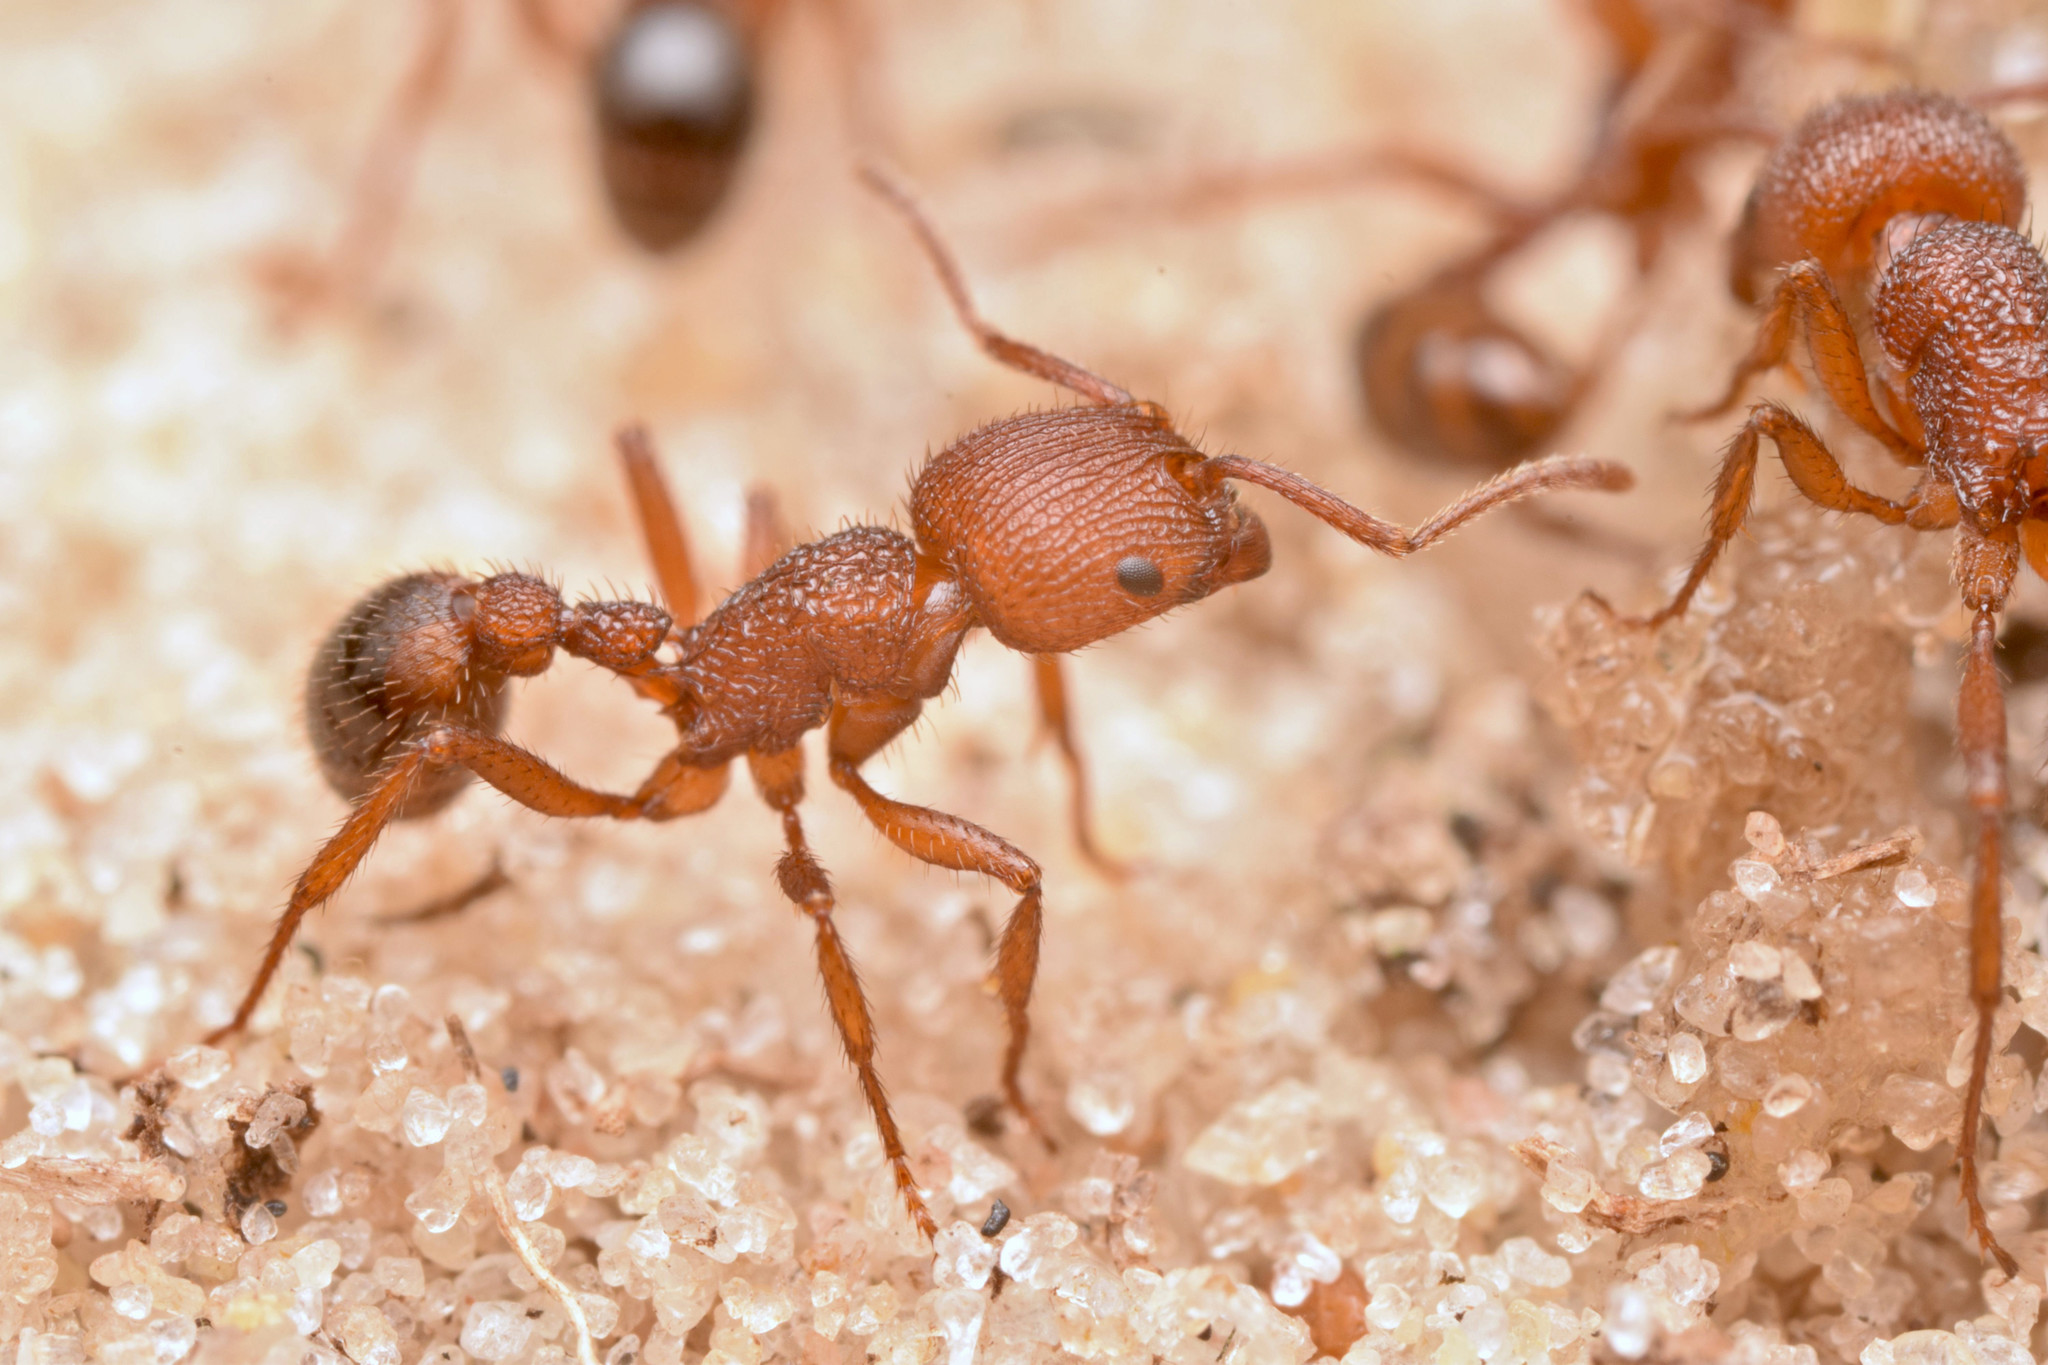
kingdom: Animalia
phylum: Arthropoda
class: Insecta
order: Hymenoptera
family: Formicidae
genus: Pogonomyrmex
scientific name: Pogonomyrmex abdominalis
